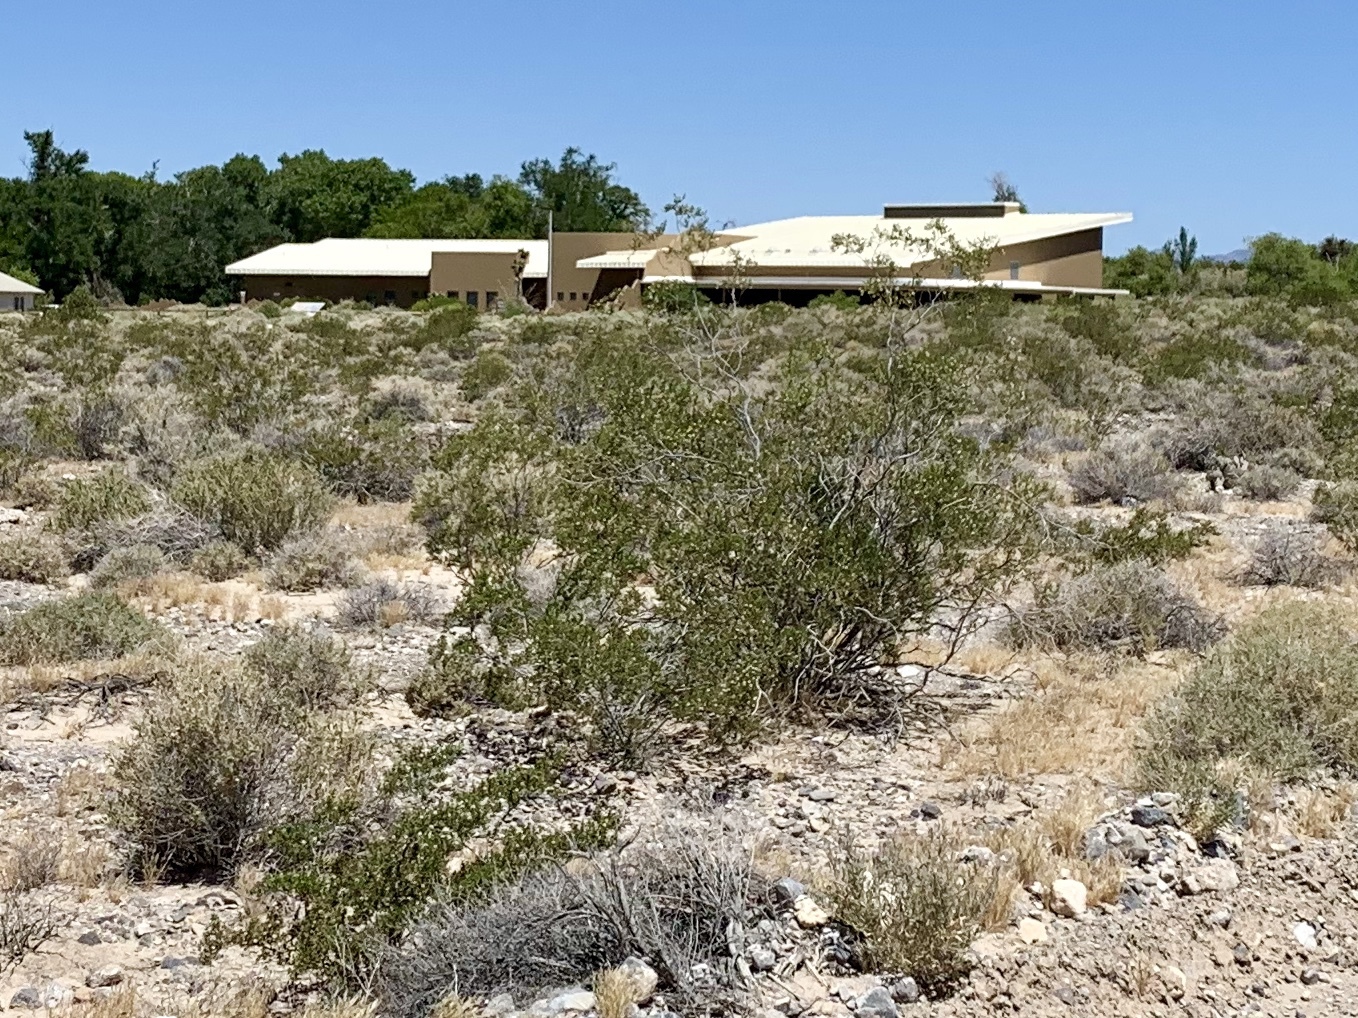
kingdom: Plantae
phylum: Tracheophyta
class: Magnoliopsida
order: Zygophyllales
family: Zygophyllaceae
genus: Larrea
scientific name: Larrea tridentata
